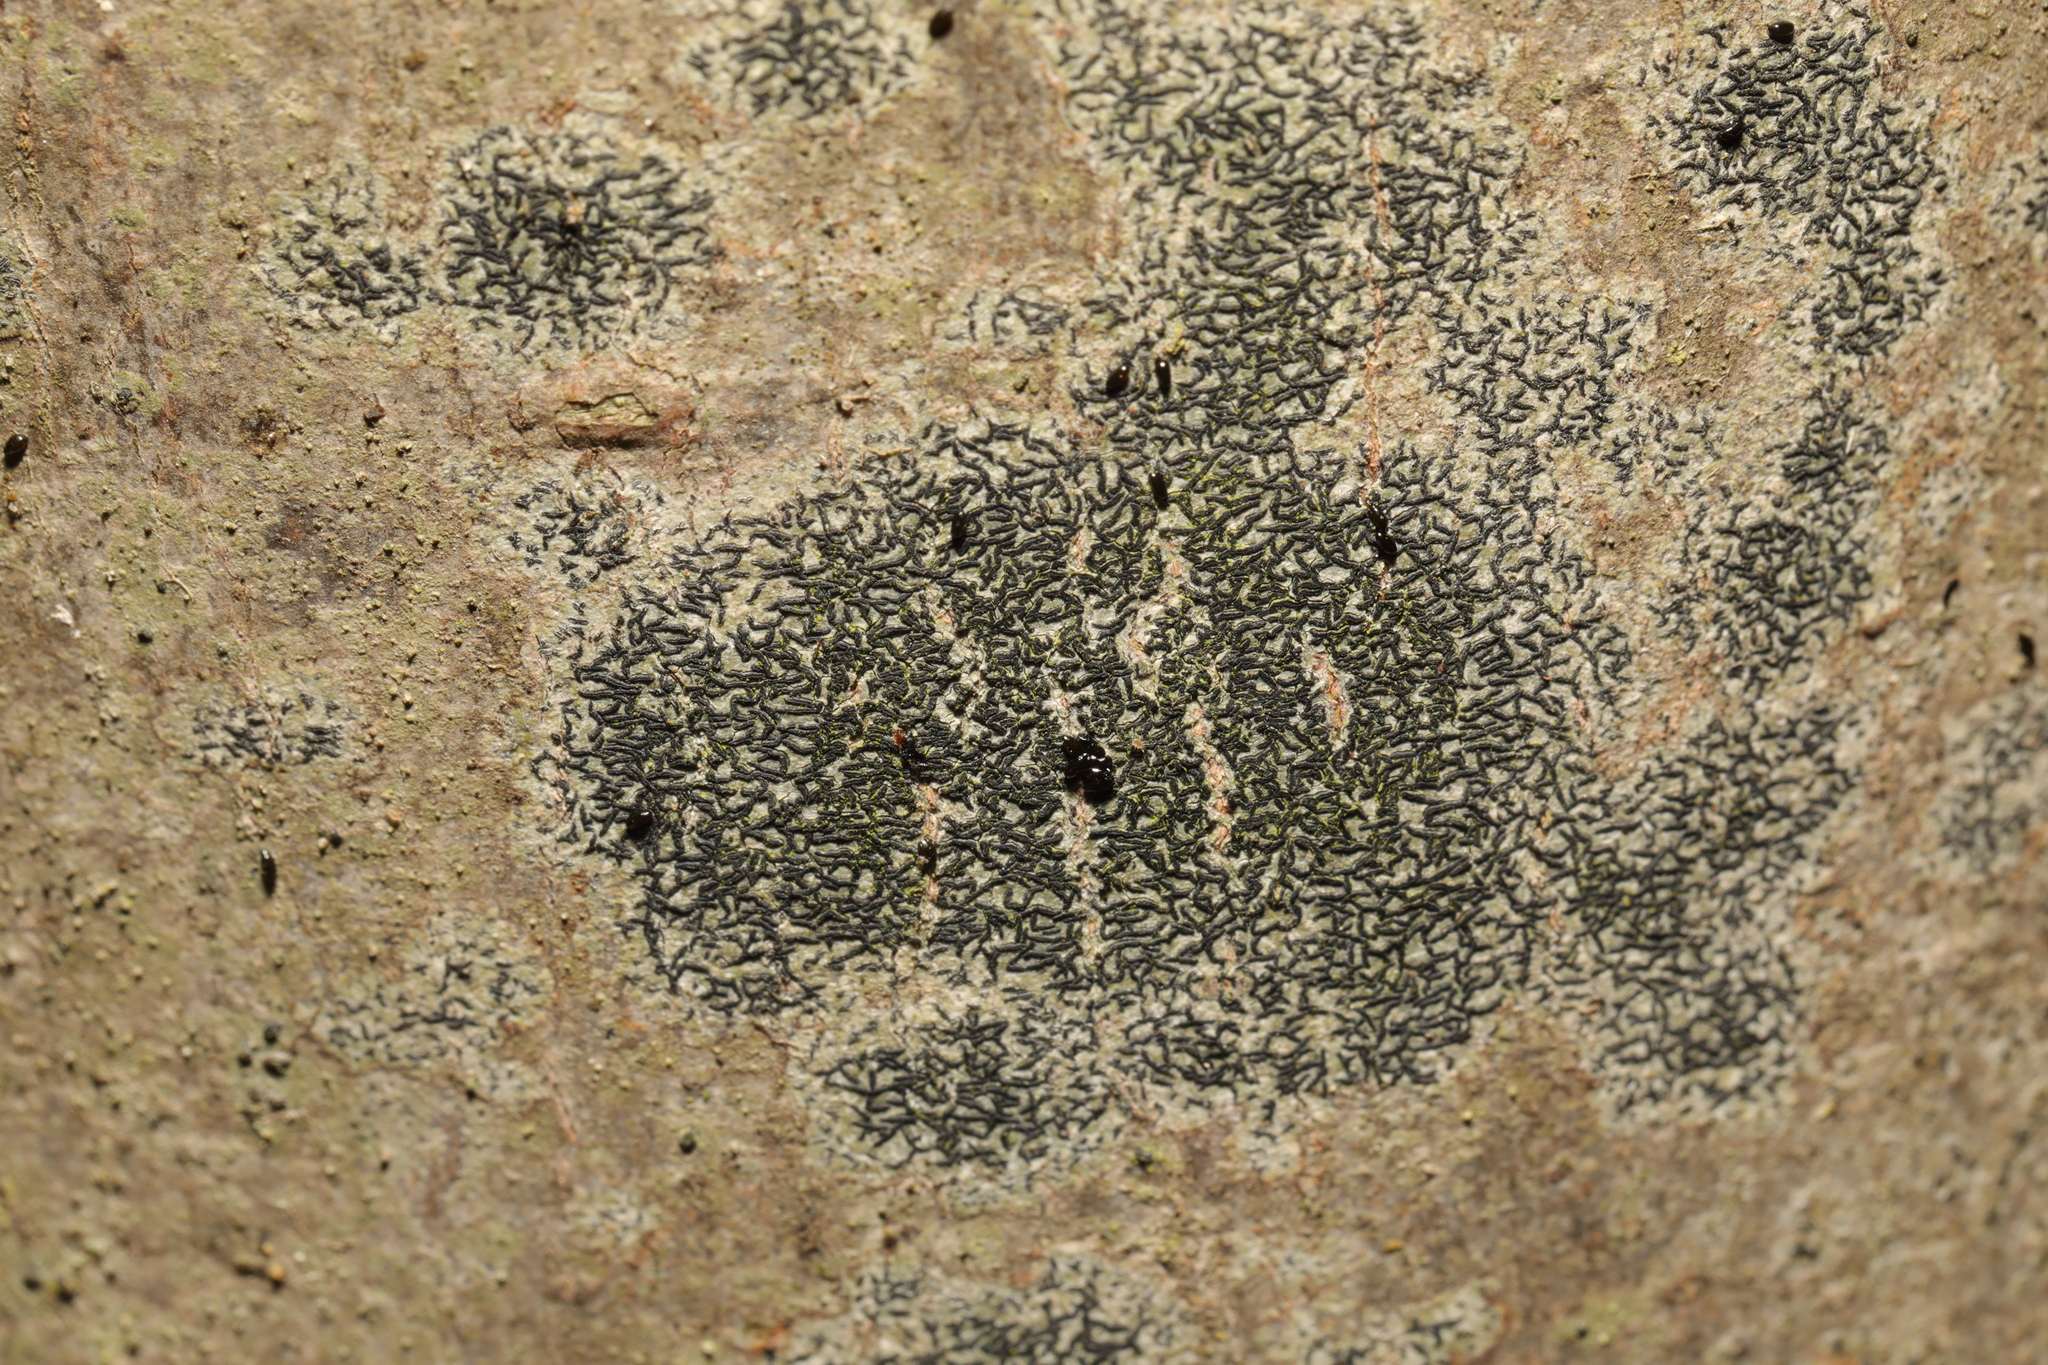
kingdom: Fungi
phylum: Ascomycota
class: Arthoniomycetes
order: Arthoniales
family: Arthoniaceae
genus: Arthonia
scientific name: Arthonia atra
